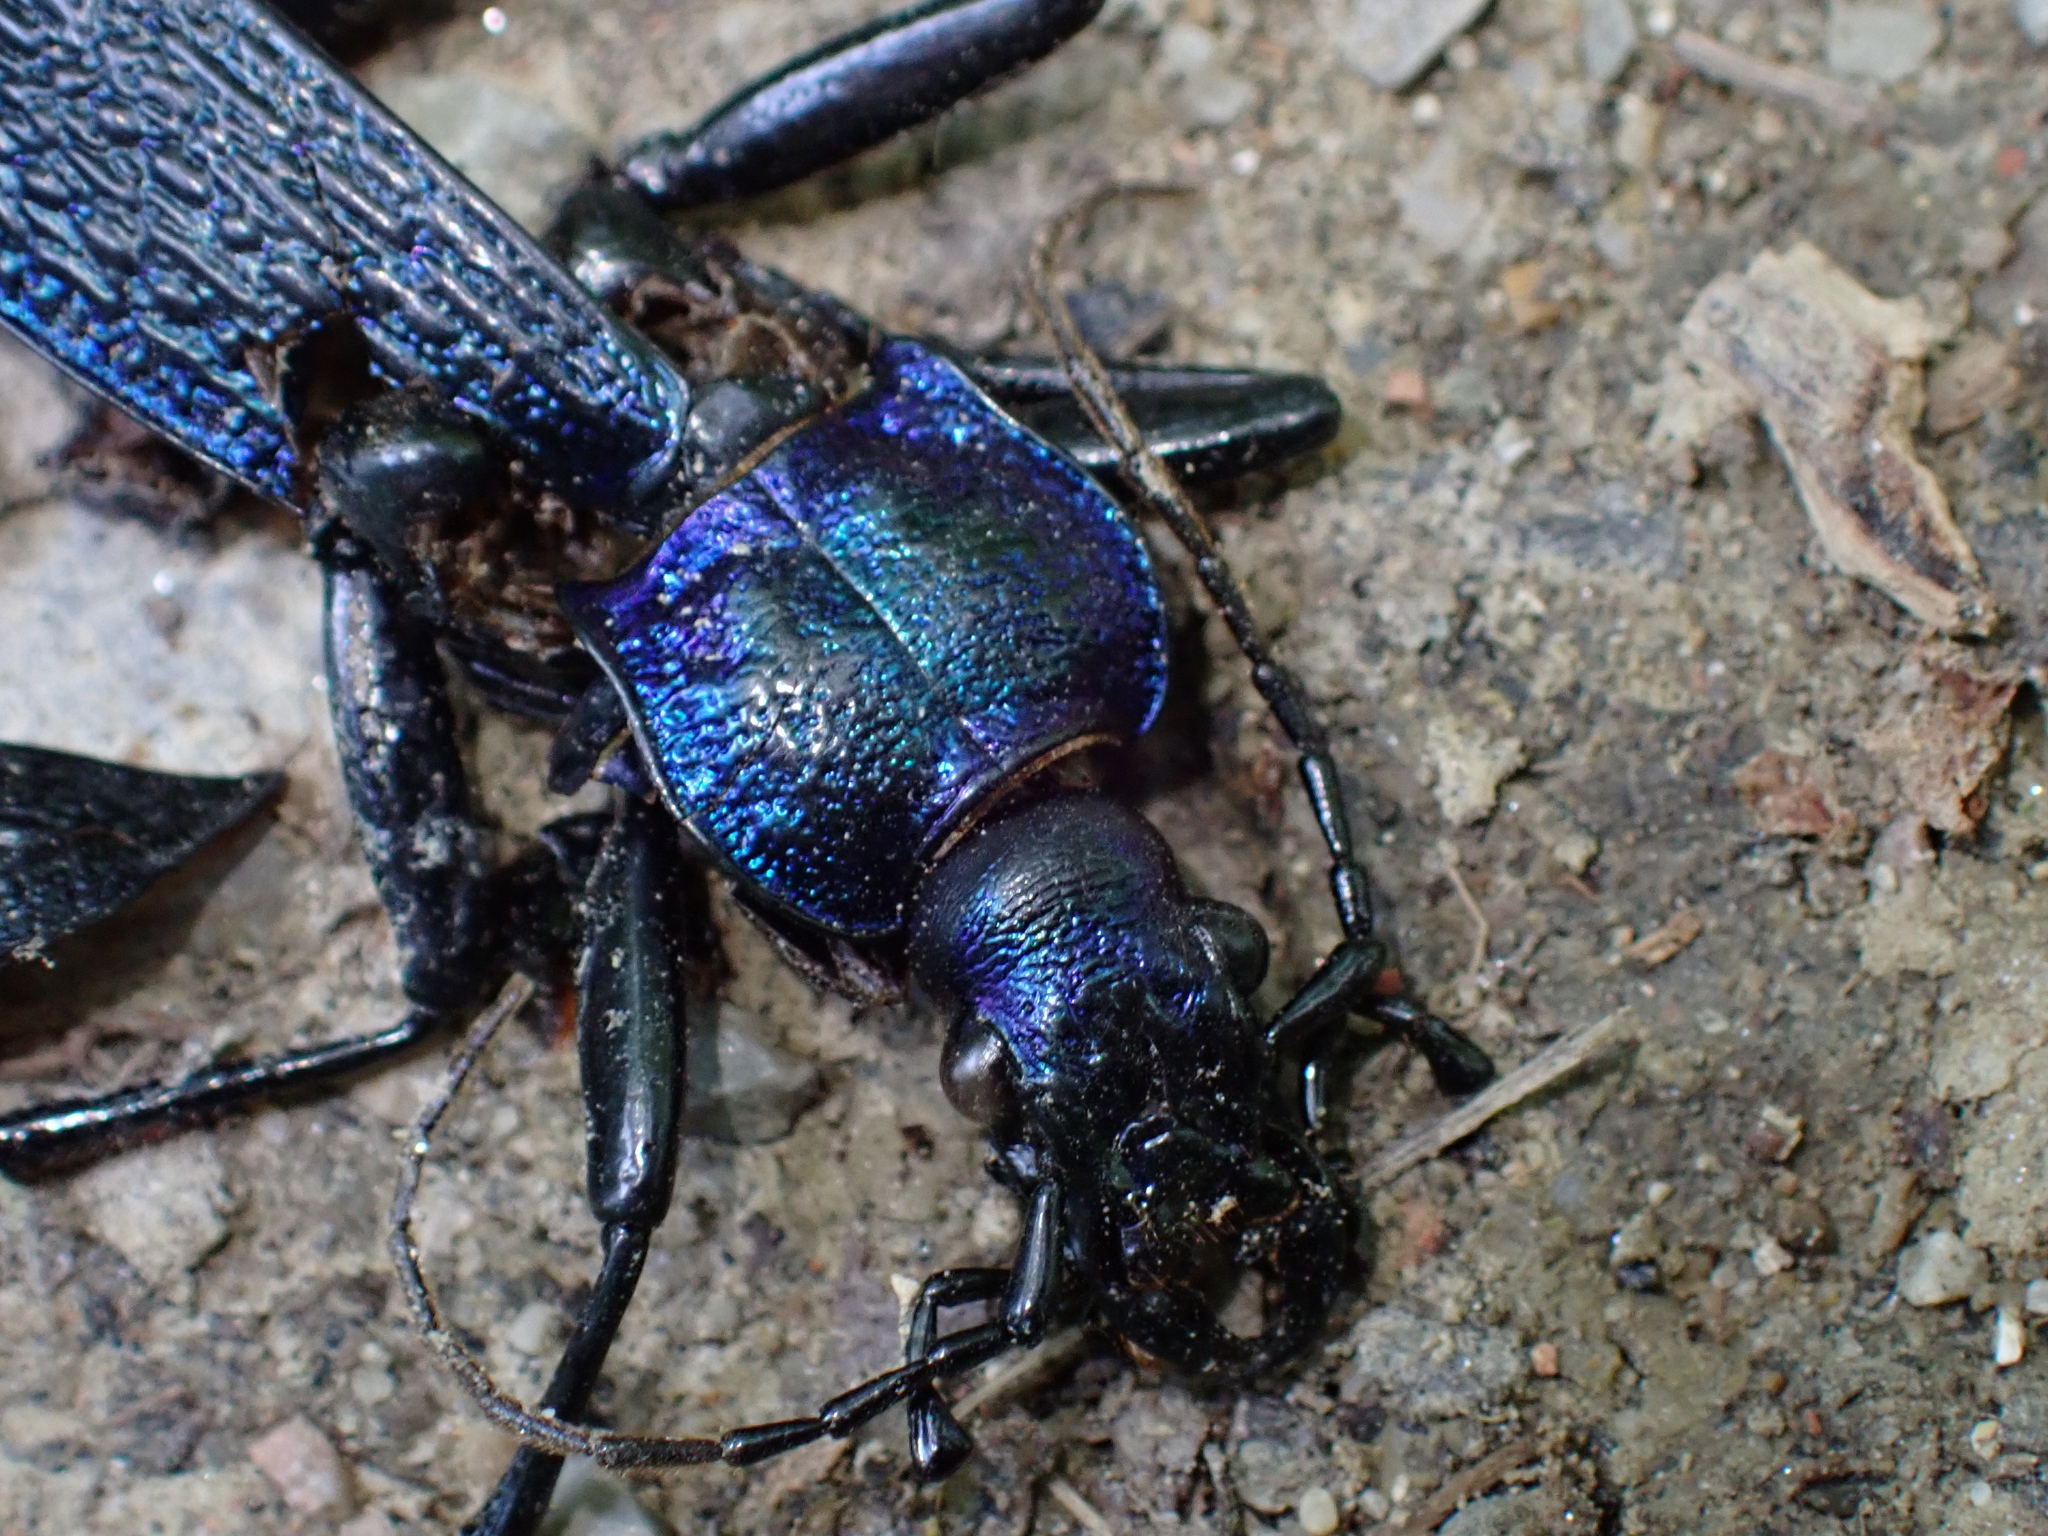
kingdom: Animalia
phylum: Arthropoda
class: Insecta
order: Coleoptera
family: Carabidae
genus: Carabus
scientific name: Carabus intricatus
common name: Blue ground beetle
